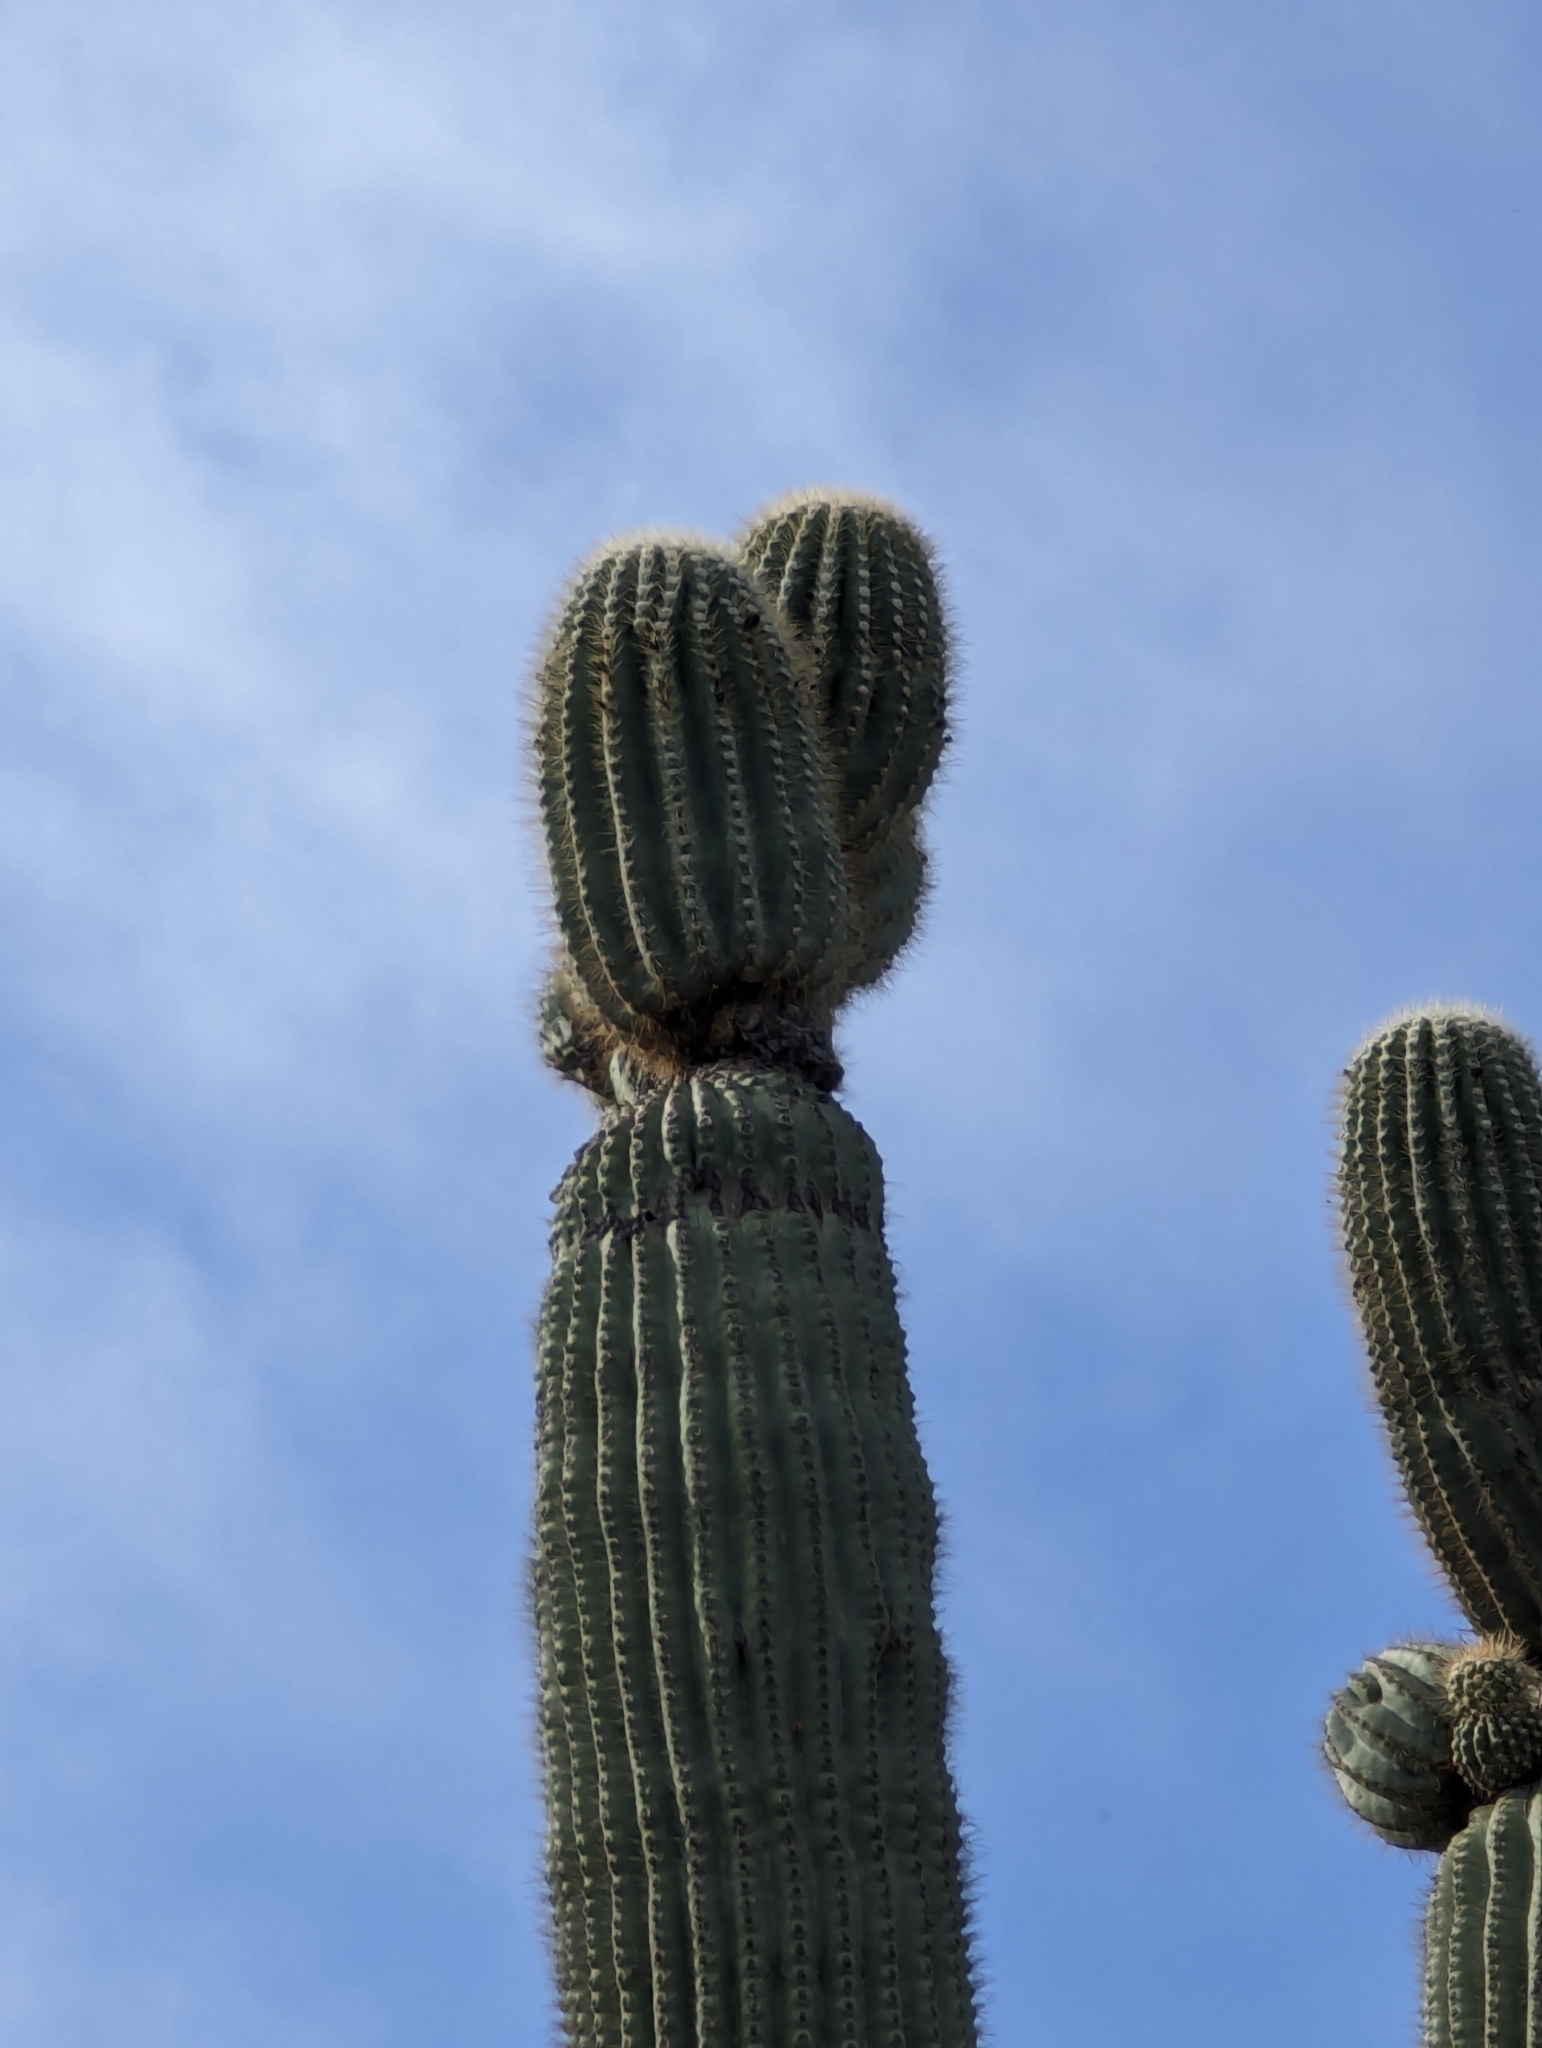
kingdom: Plantae
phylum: Tracheophyta
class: Magnoliopsida
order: Caryophyllales
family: Cactaceae
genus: Carnegiea
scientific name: Carnegiea gigantea
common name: Saguaro
